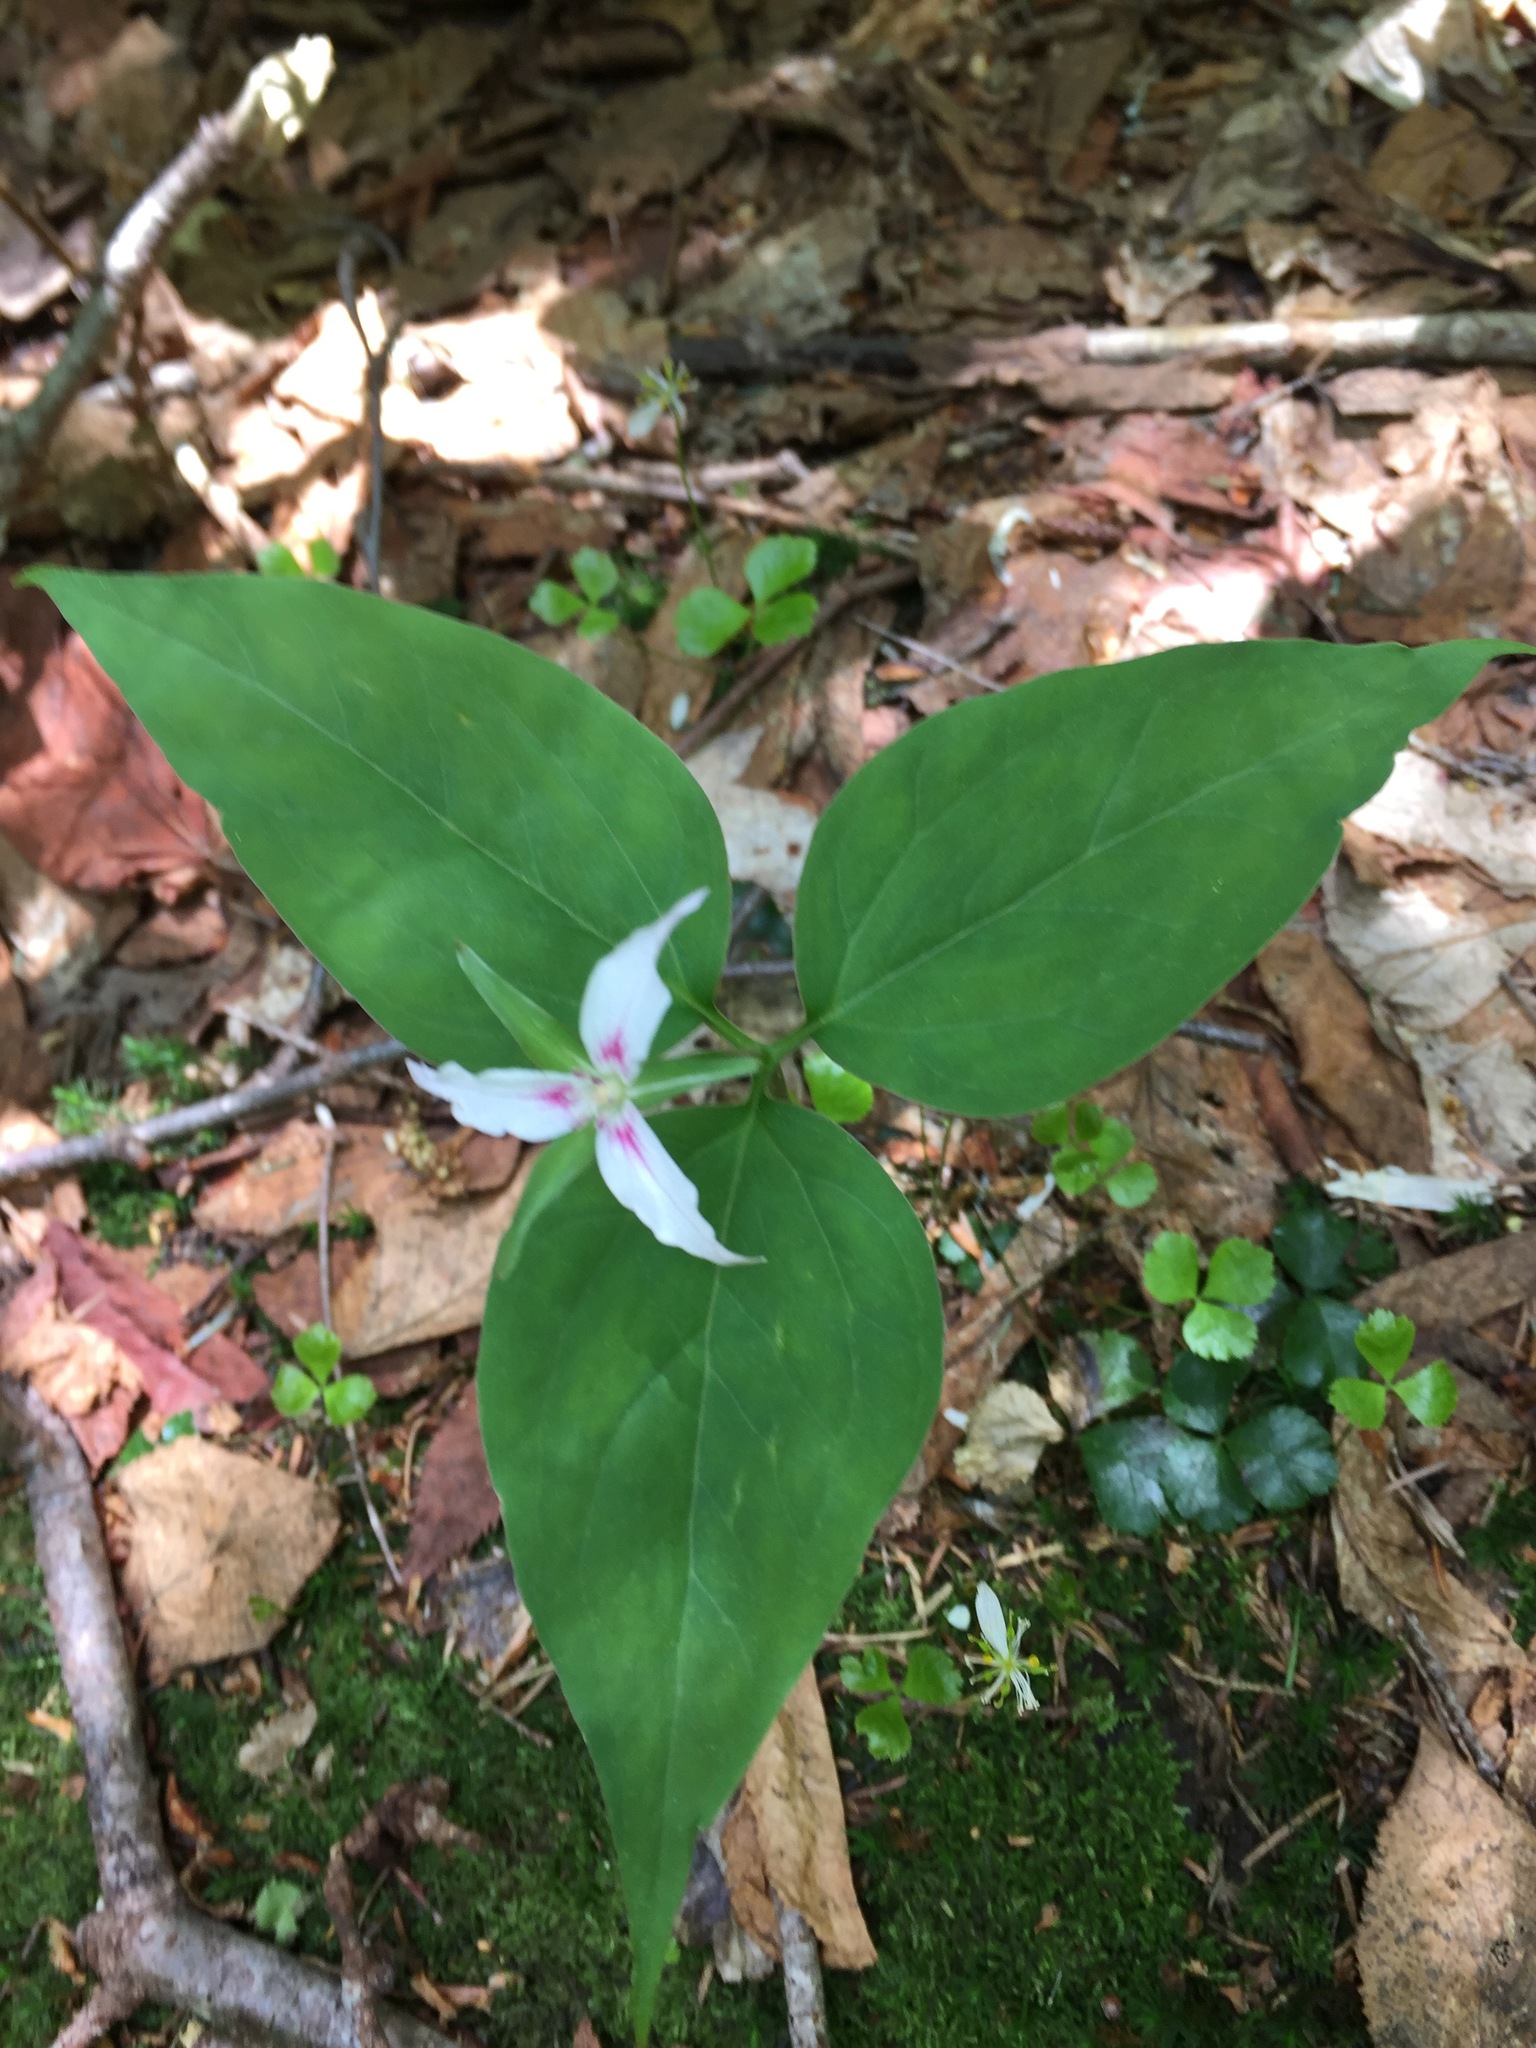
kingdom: Plantae
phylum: Tracheophyta
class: Liliopsida
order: Liliales
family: Melanthiaceae
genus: Trillium
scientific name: Trillium undulatum
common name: Paint trillium
